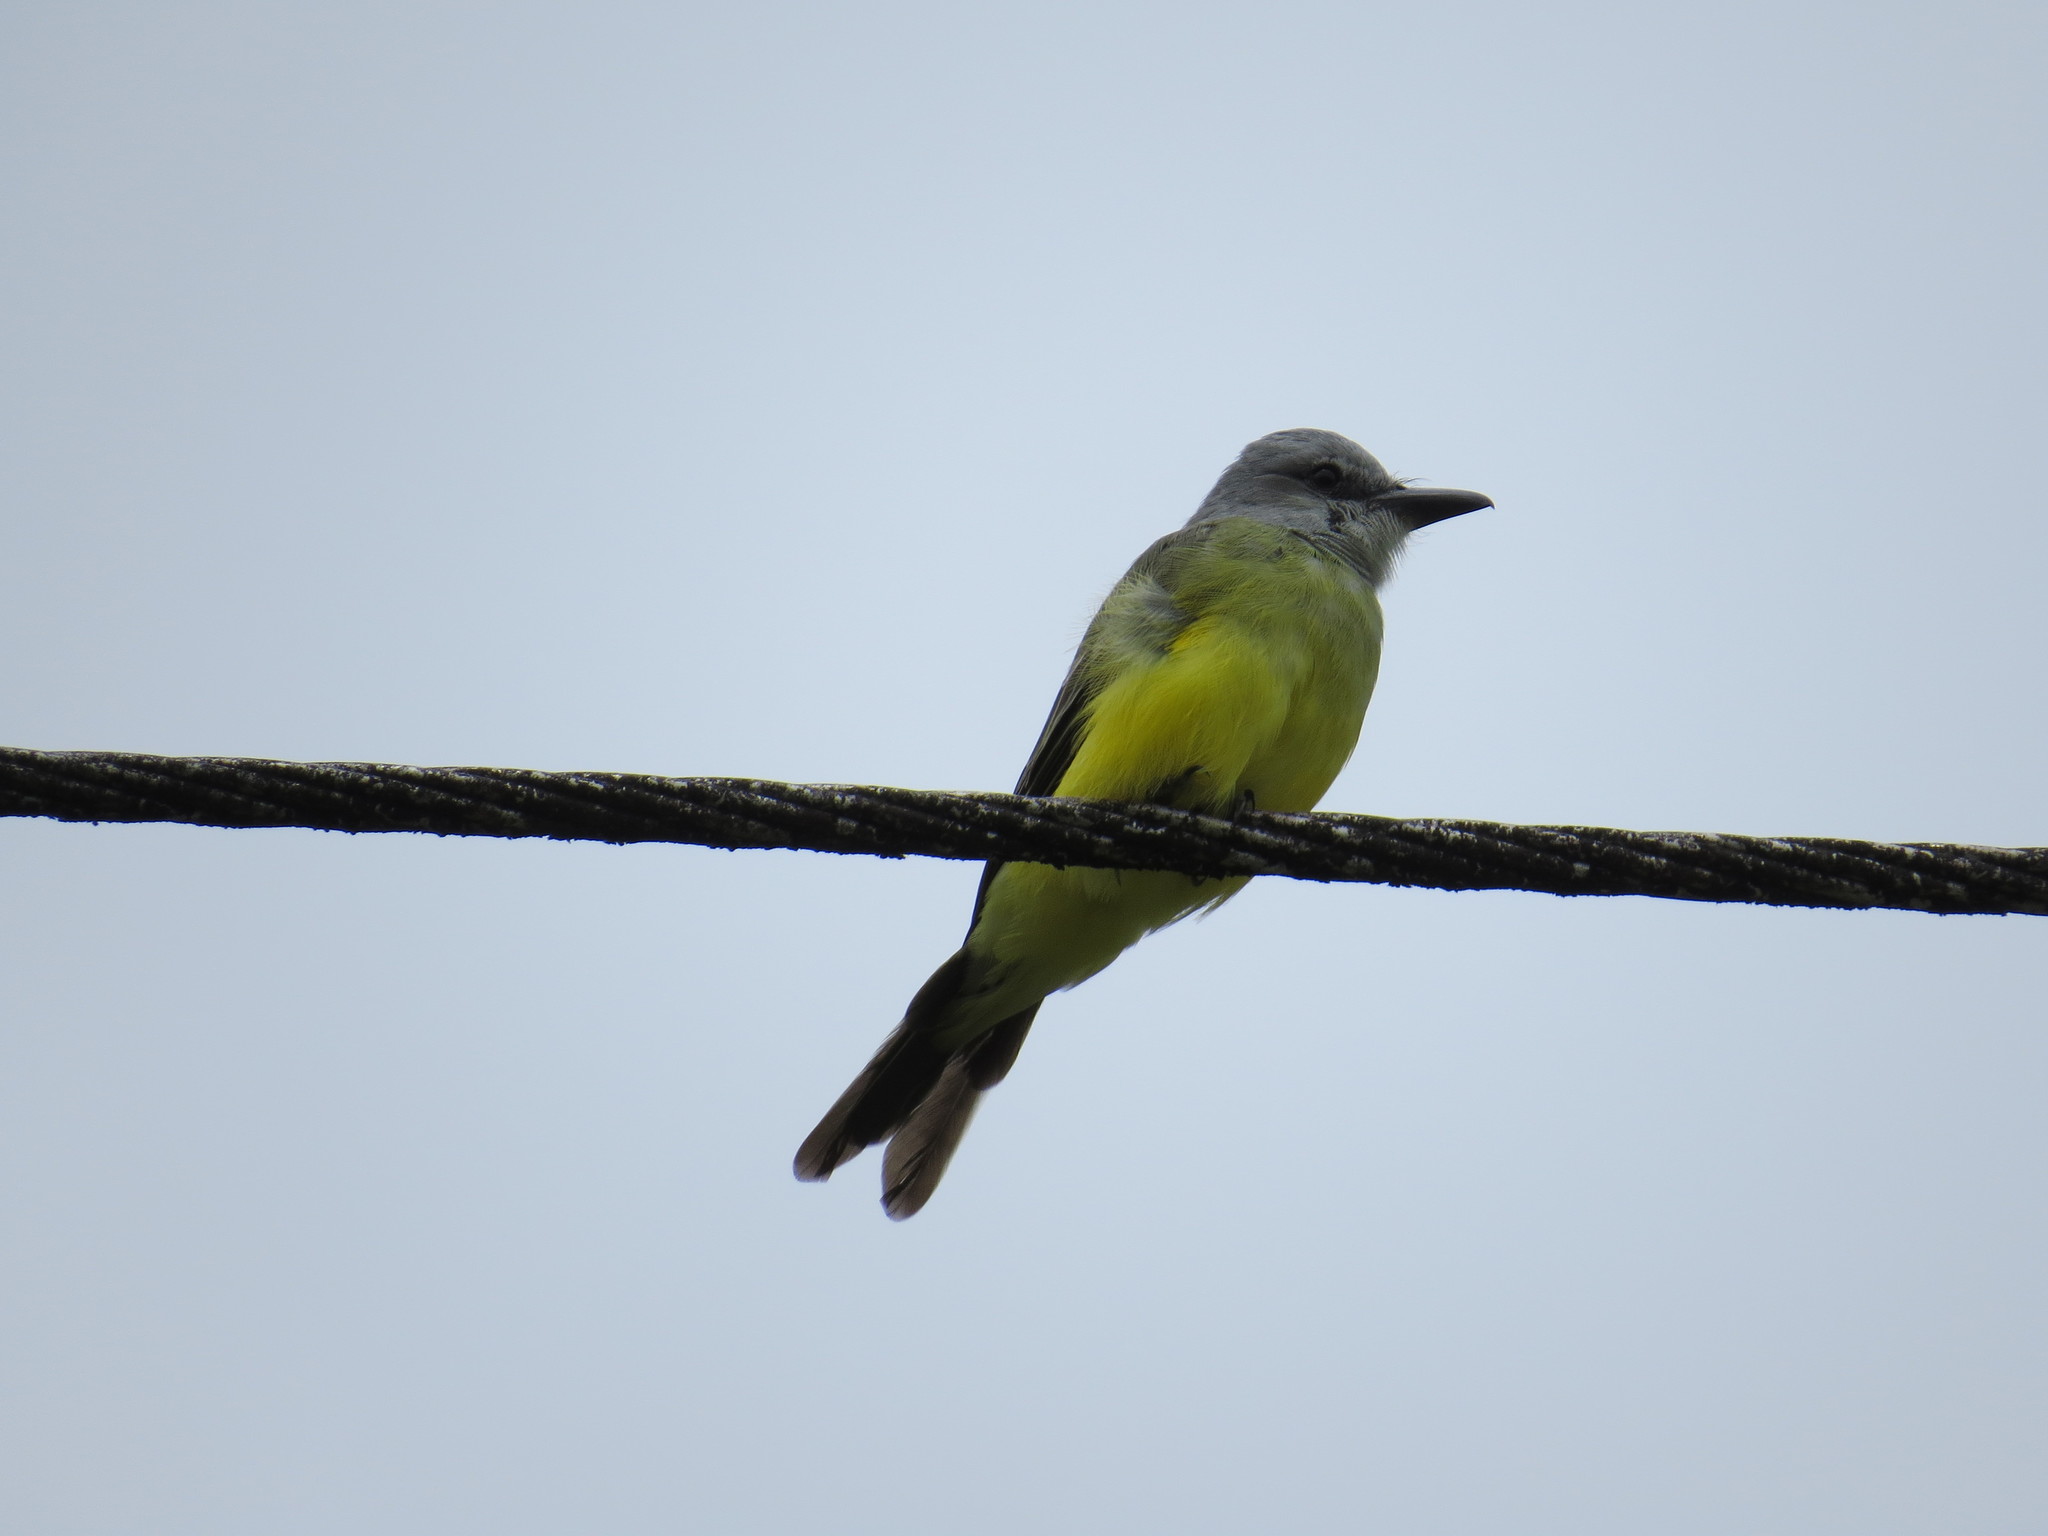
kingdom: Animalia
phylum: Chordata
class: Aves
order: Passeriformes
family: Tyrannidae
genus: Tyrannus
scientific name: Tyrannus melancholicus
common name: Tropical kingbird
